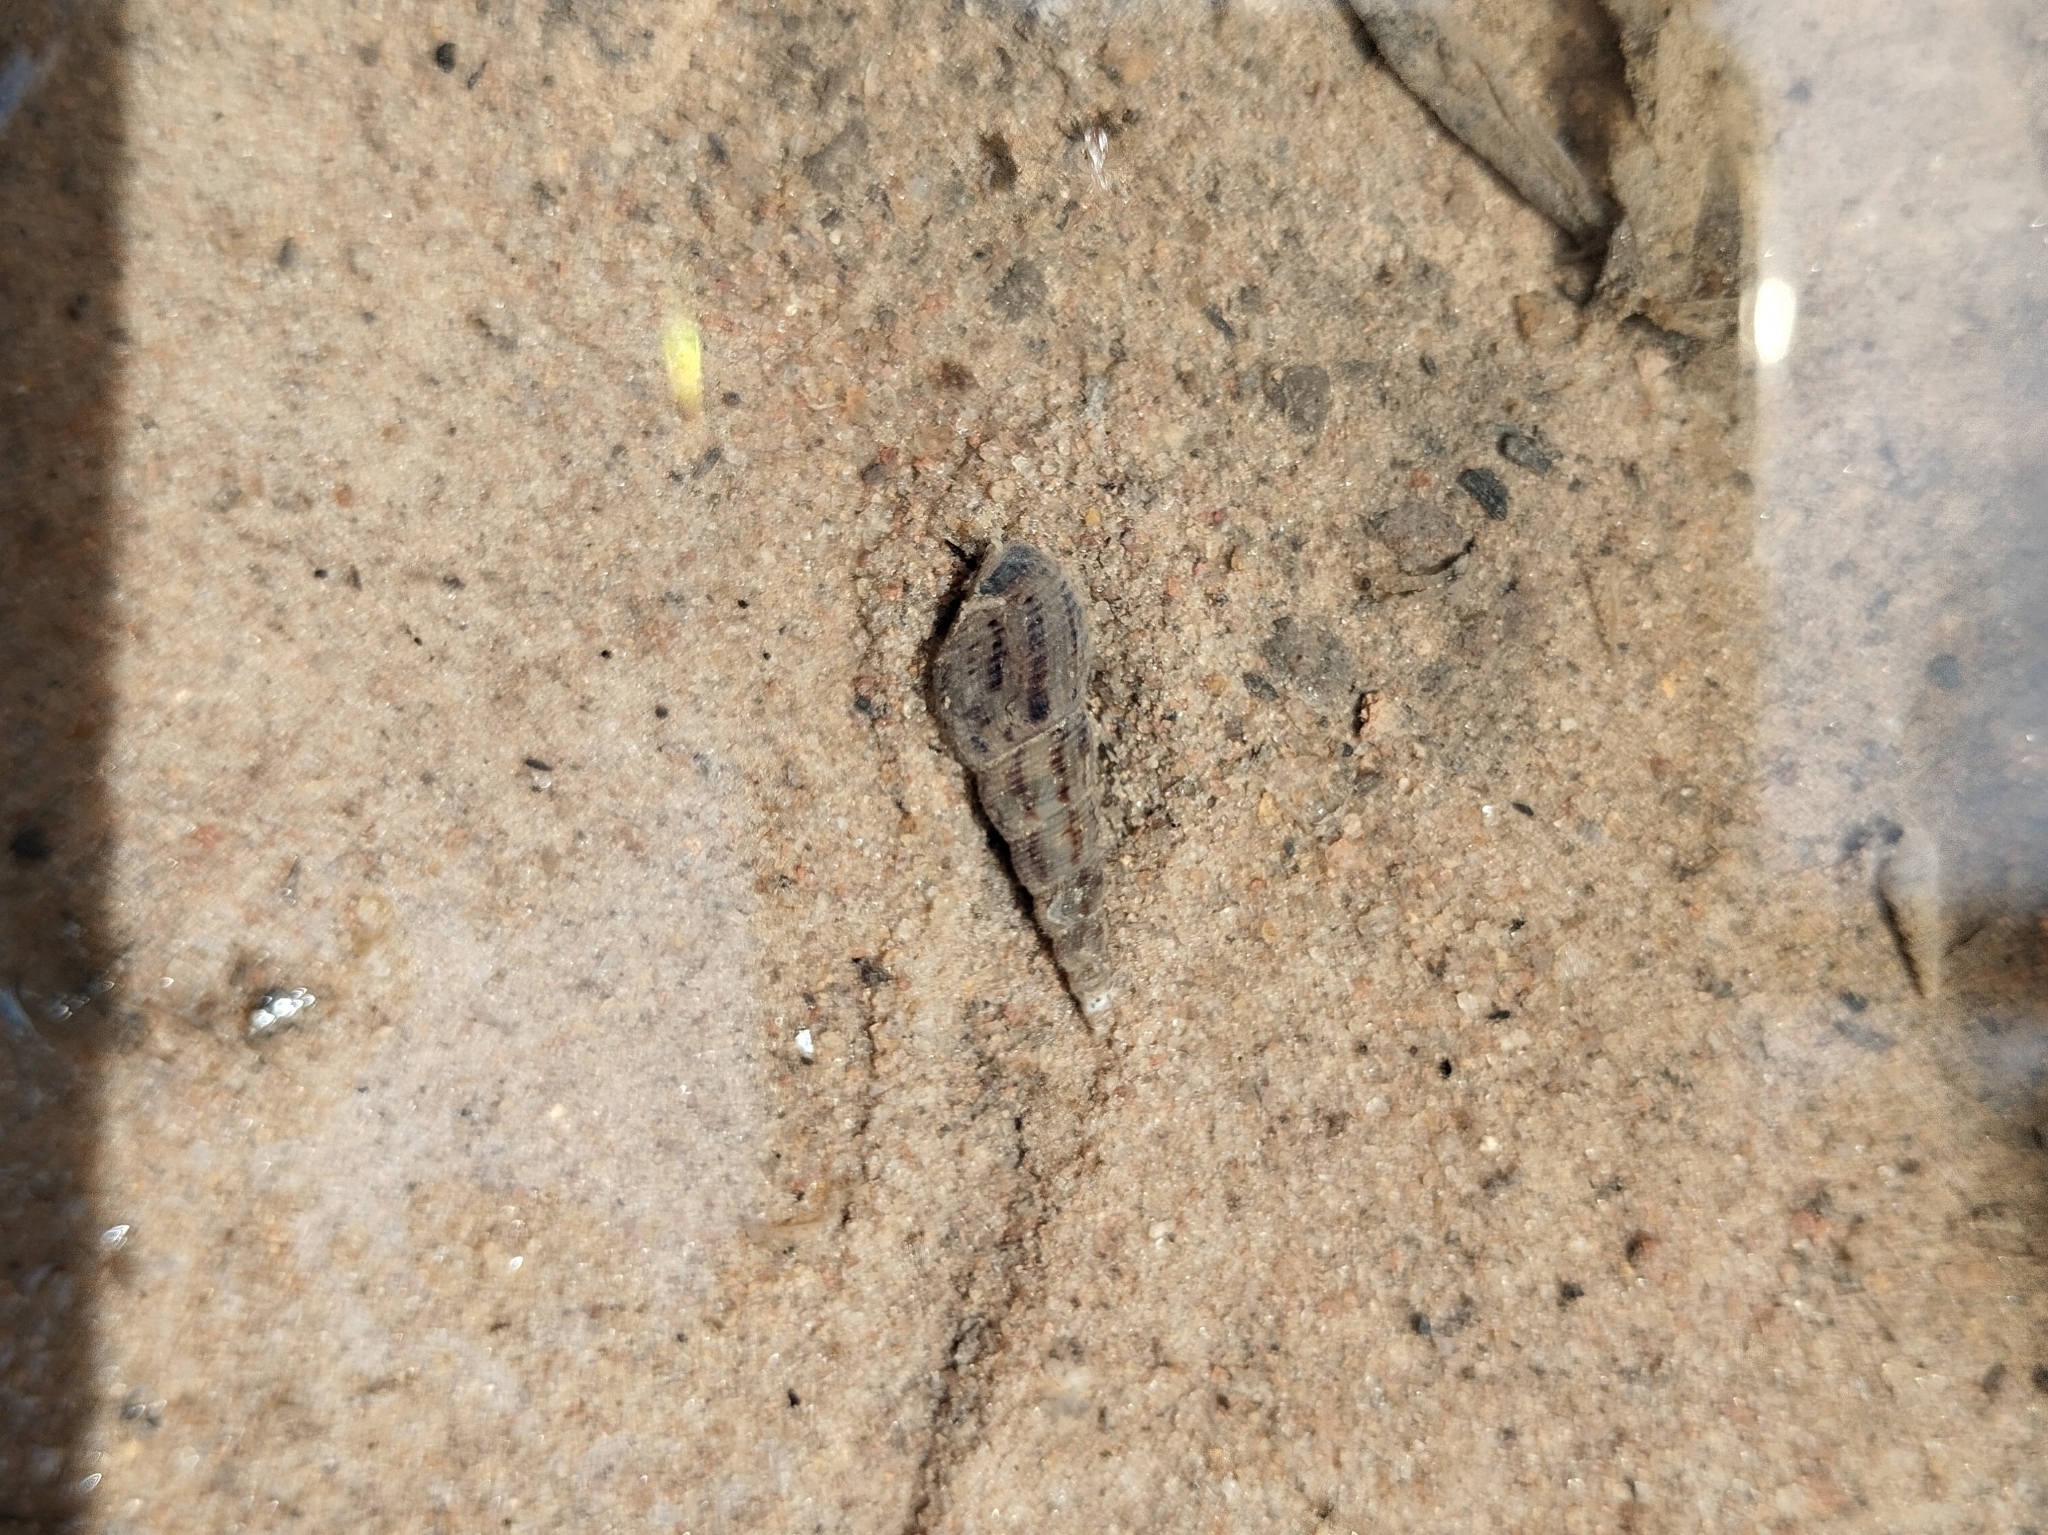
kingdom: Animalia
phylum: Mollusca
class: Gastropoda
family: Thiaridae
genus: Melanoides
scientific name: Melanoides tuberculata
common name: Red-rim melania
